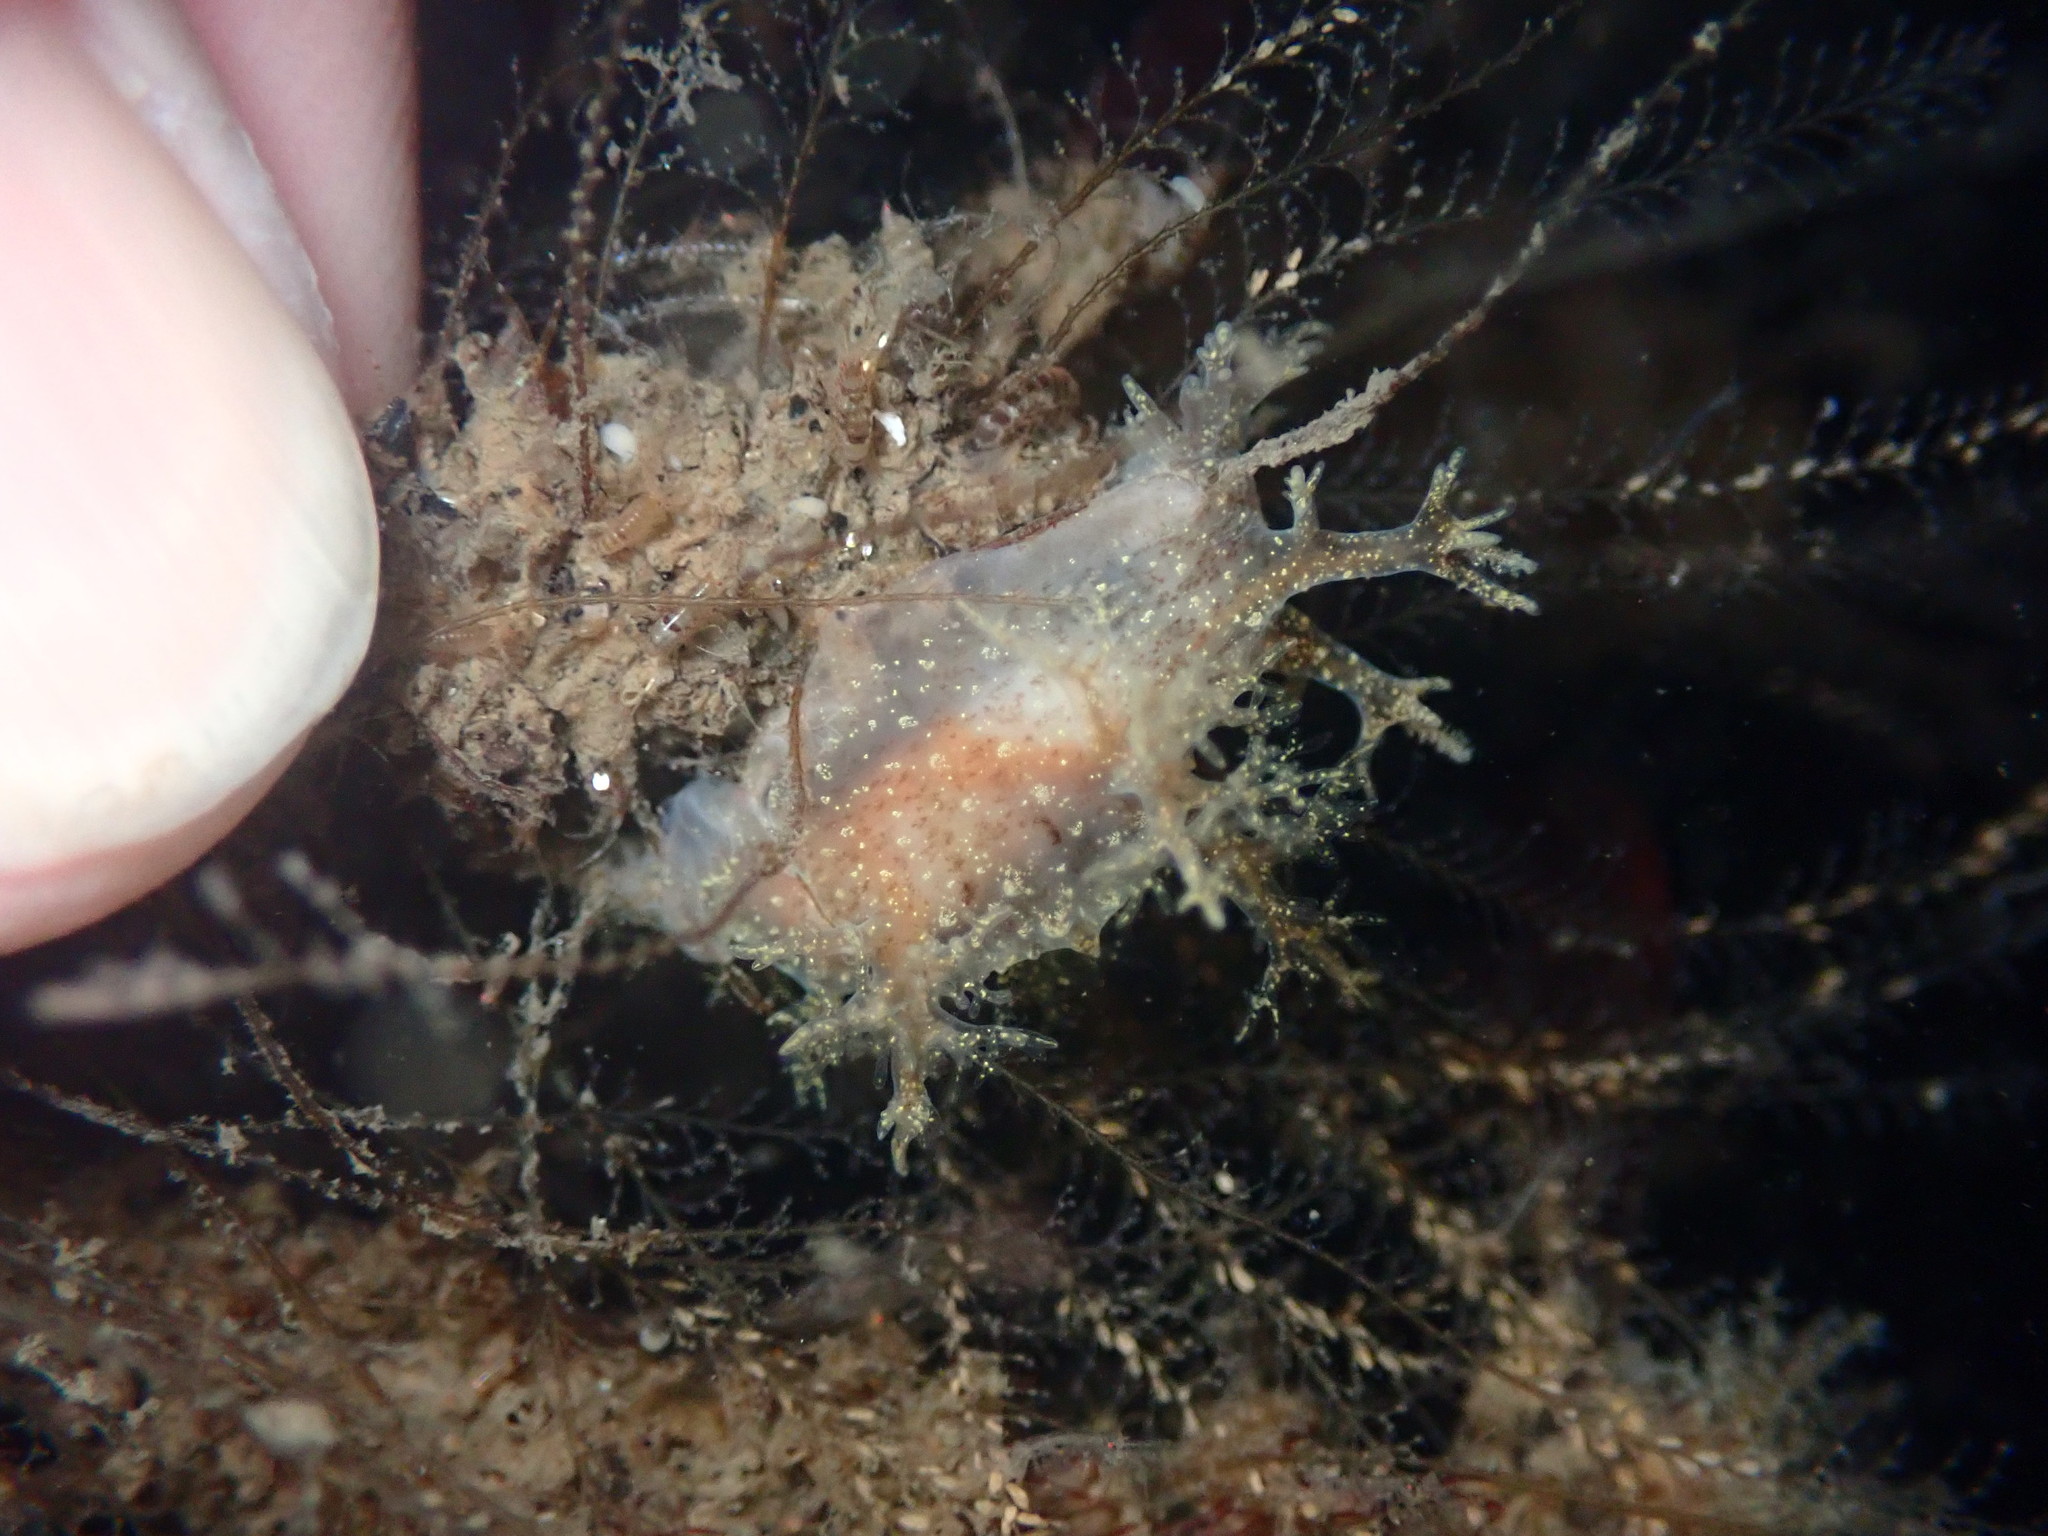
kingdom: Animalia
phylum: Mollusca
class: Gastropoda
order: Nudibranchia
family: Dendronotidae
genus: Dendronotus
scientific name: Dendronotus venustus
